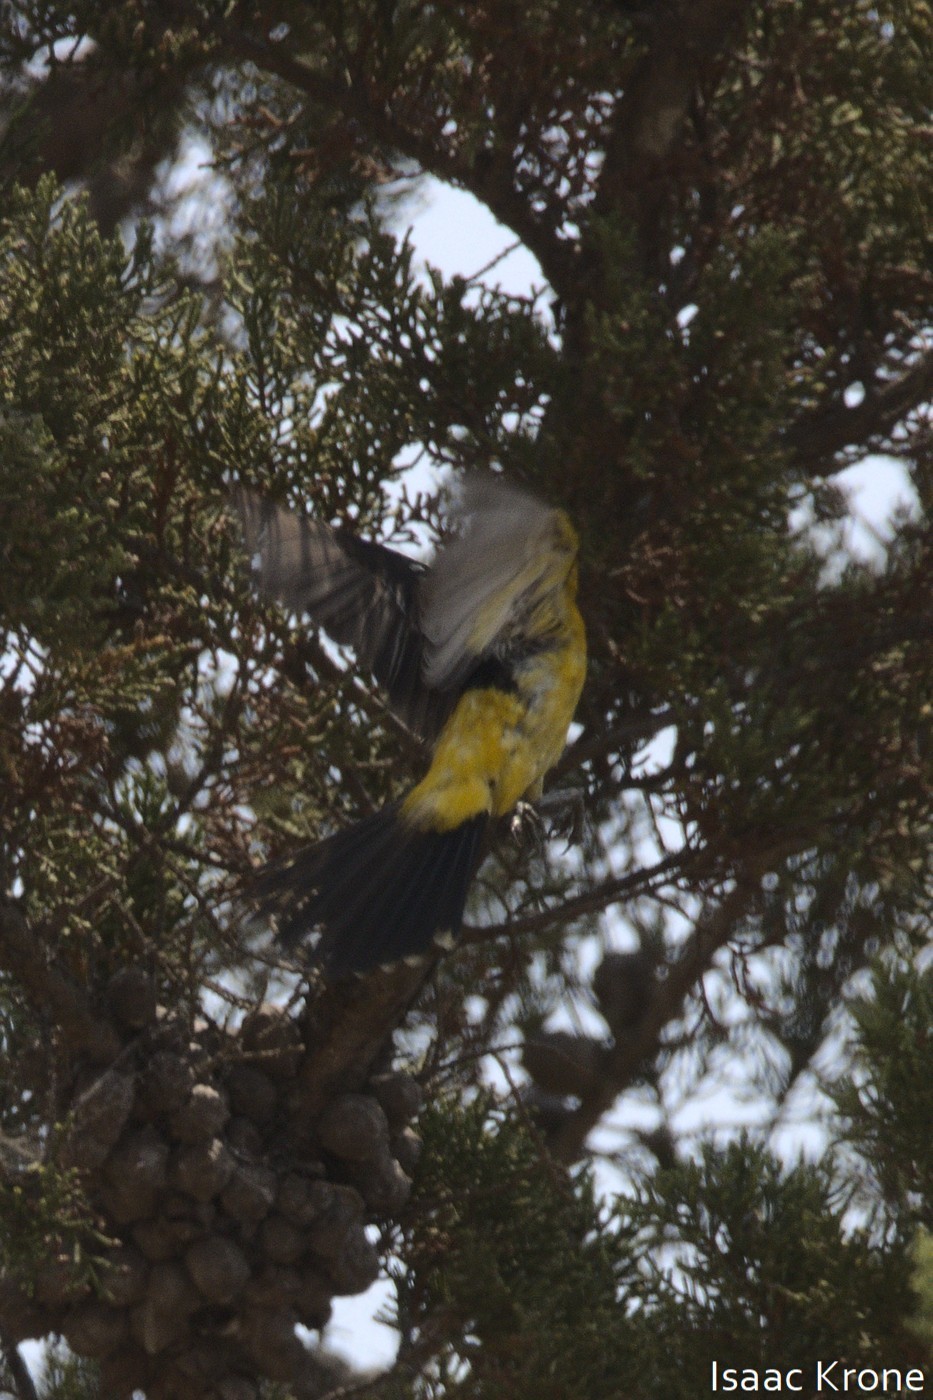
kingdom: Animalia
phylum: Chordata
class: Aves
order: Passeriformes
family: Icteridae
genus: Icterus
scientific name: Icterus cucullatus
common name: Hooded oriole
